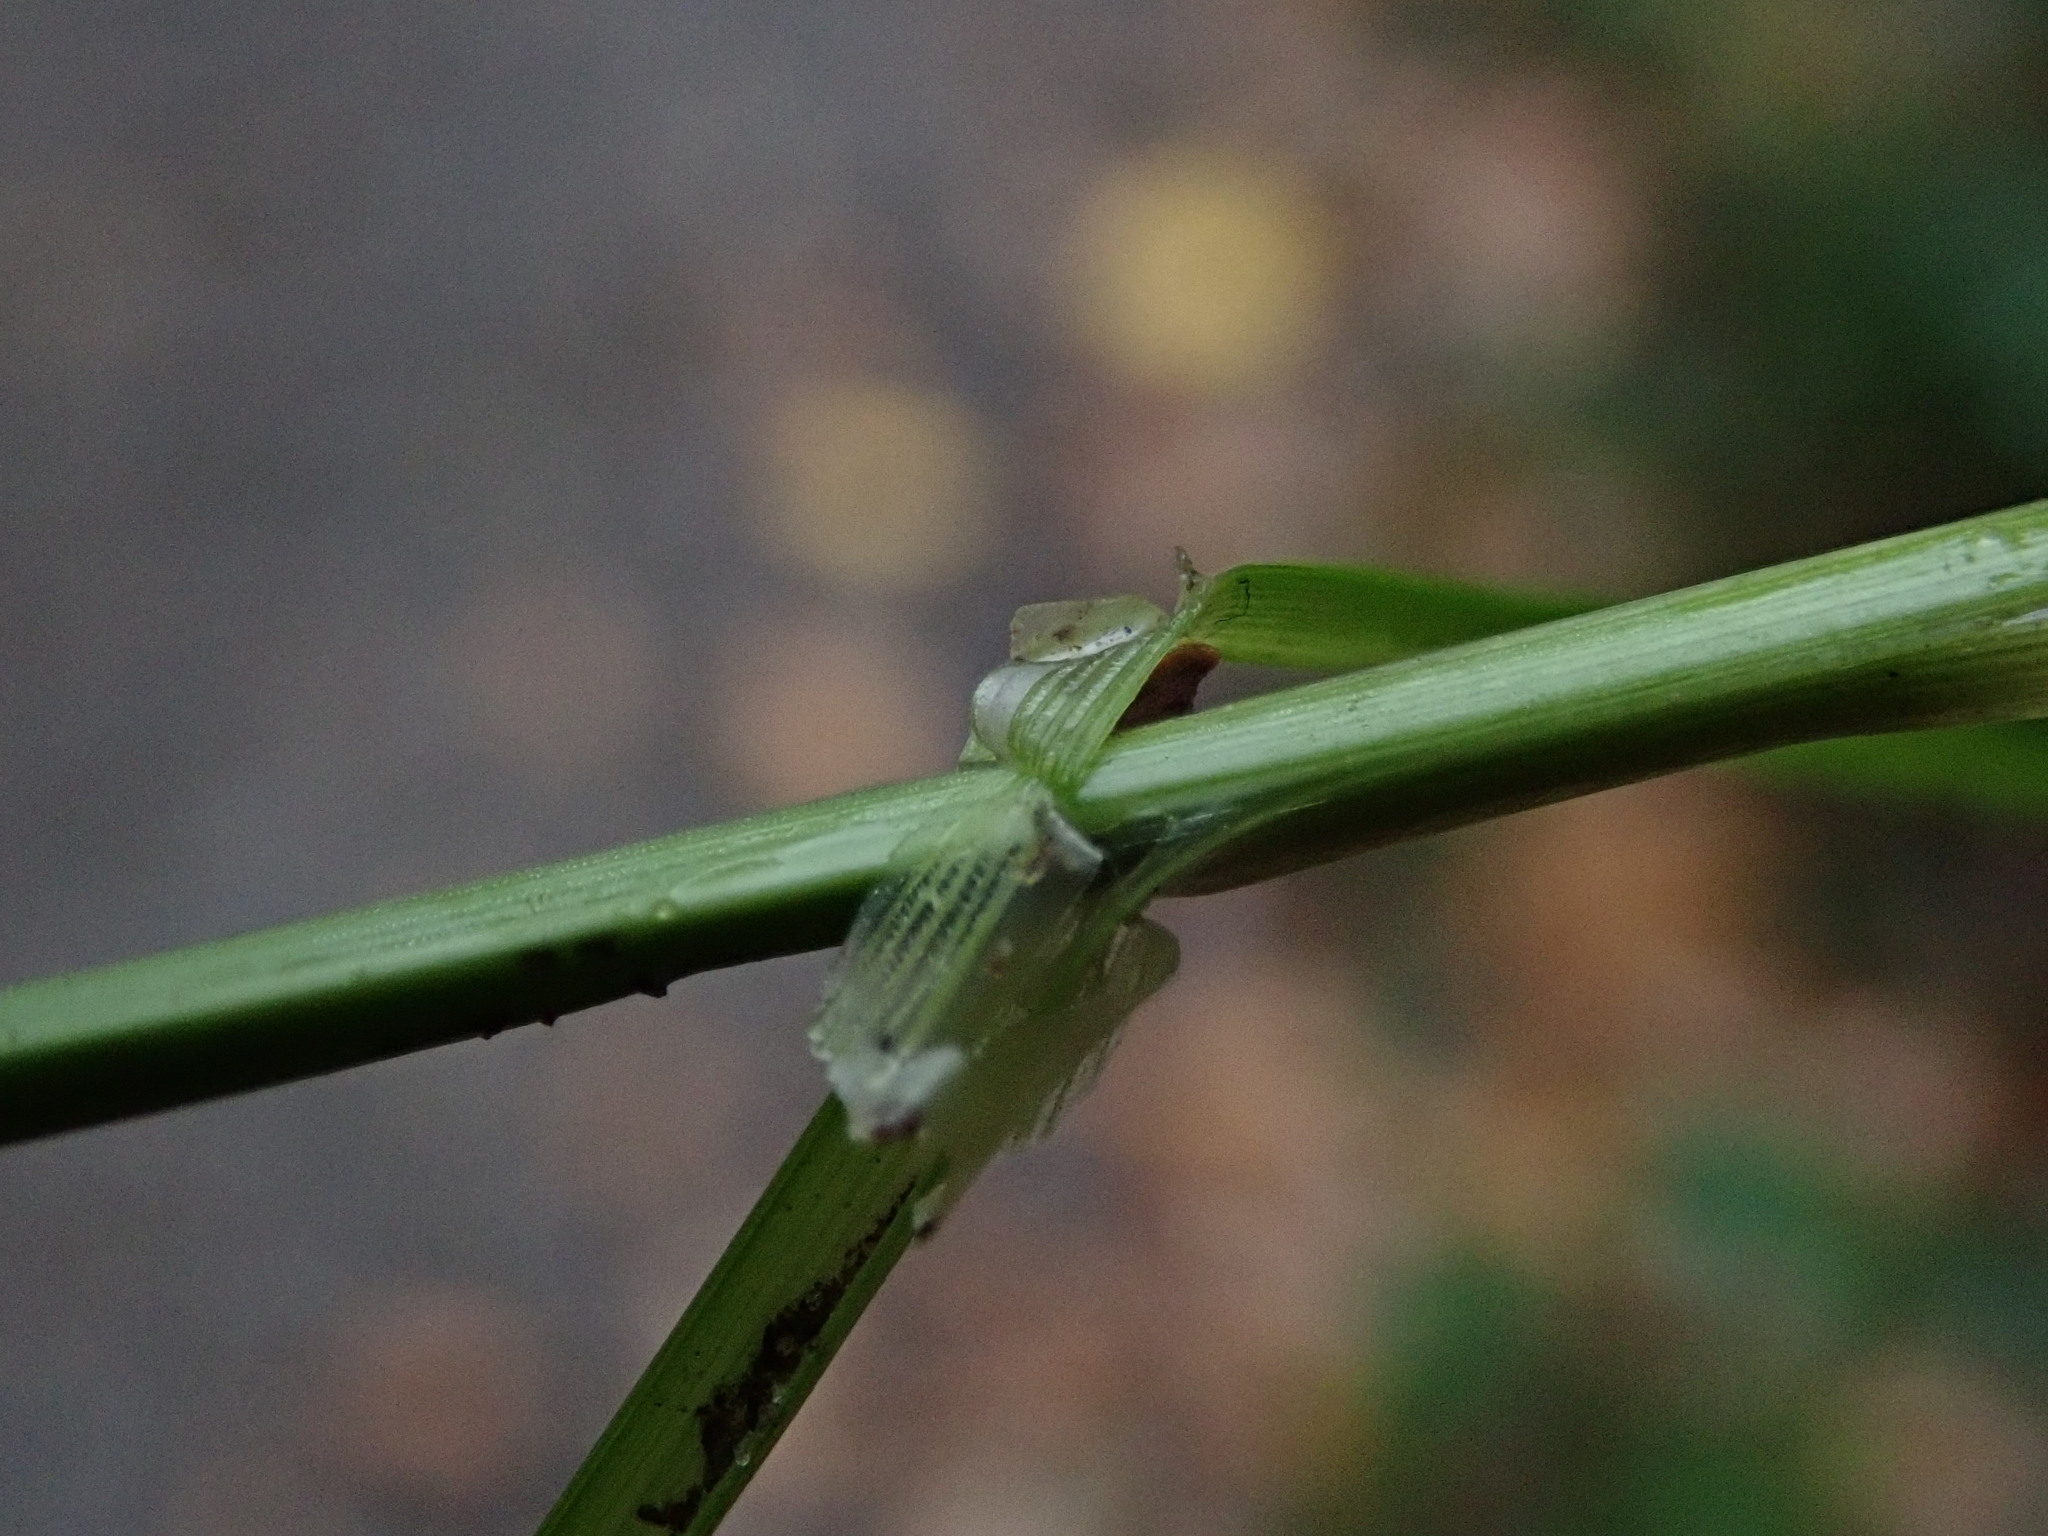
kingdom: Plantae
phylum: Tracheophyta
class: Liliopsida
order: Poales
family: Cyperaceae
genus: Carex
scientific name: Carex remota
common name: Remote sedge
